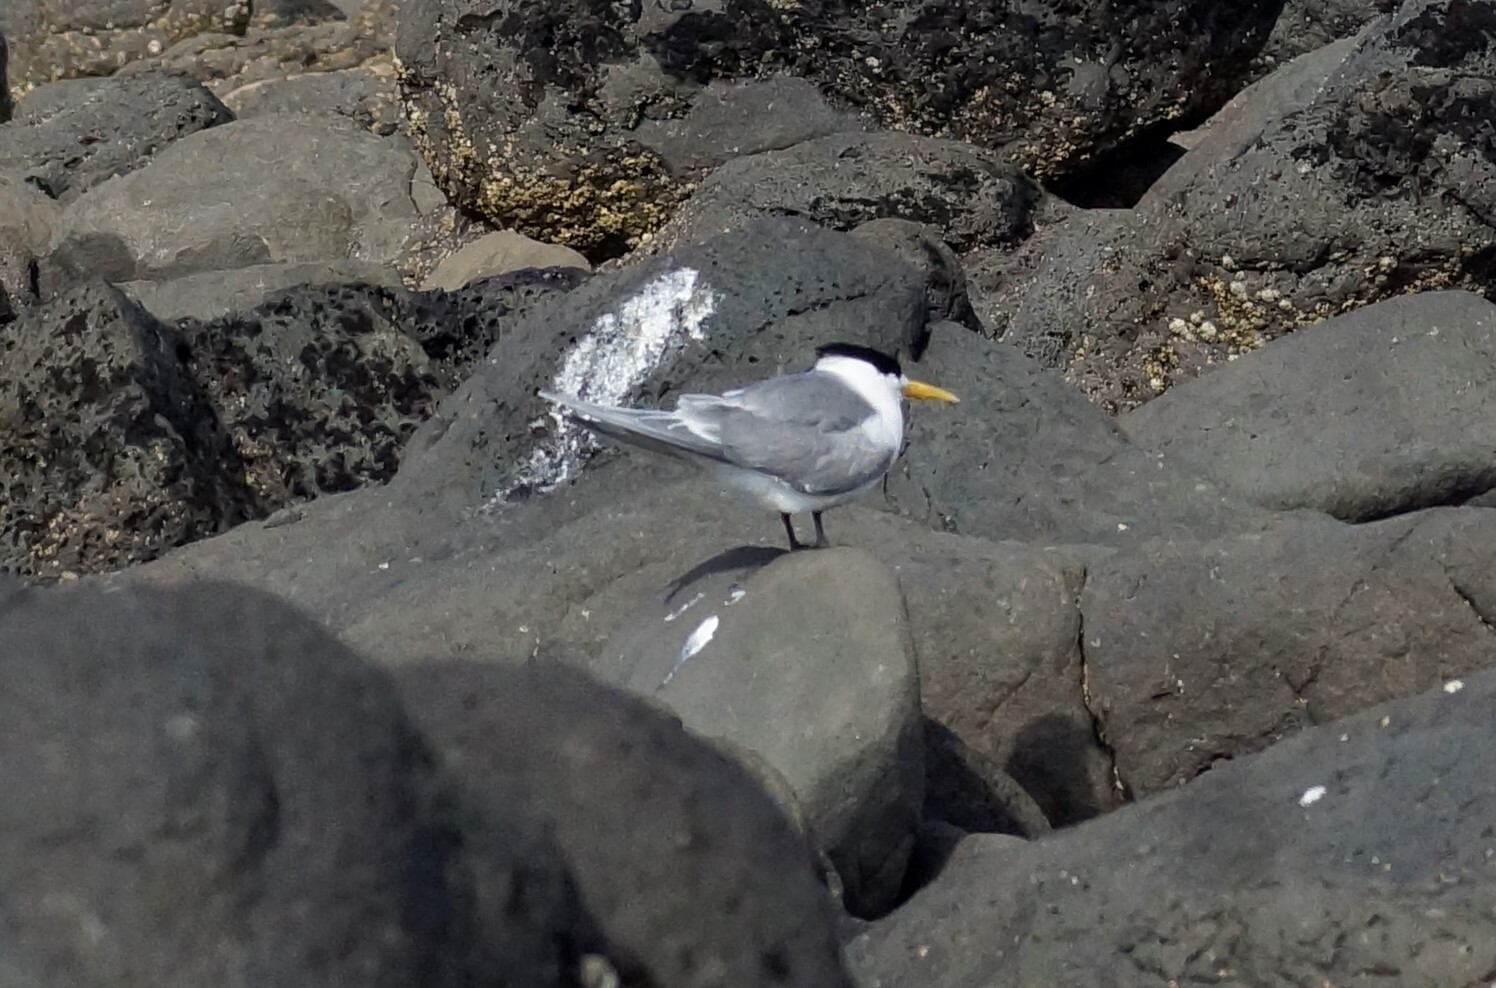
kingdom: Animalia
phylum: Chordata
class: Aves
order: Charadriiformes
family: Laridae
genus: Thalasseus
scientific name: Thalasseus bergii
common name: Greater crested tern
